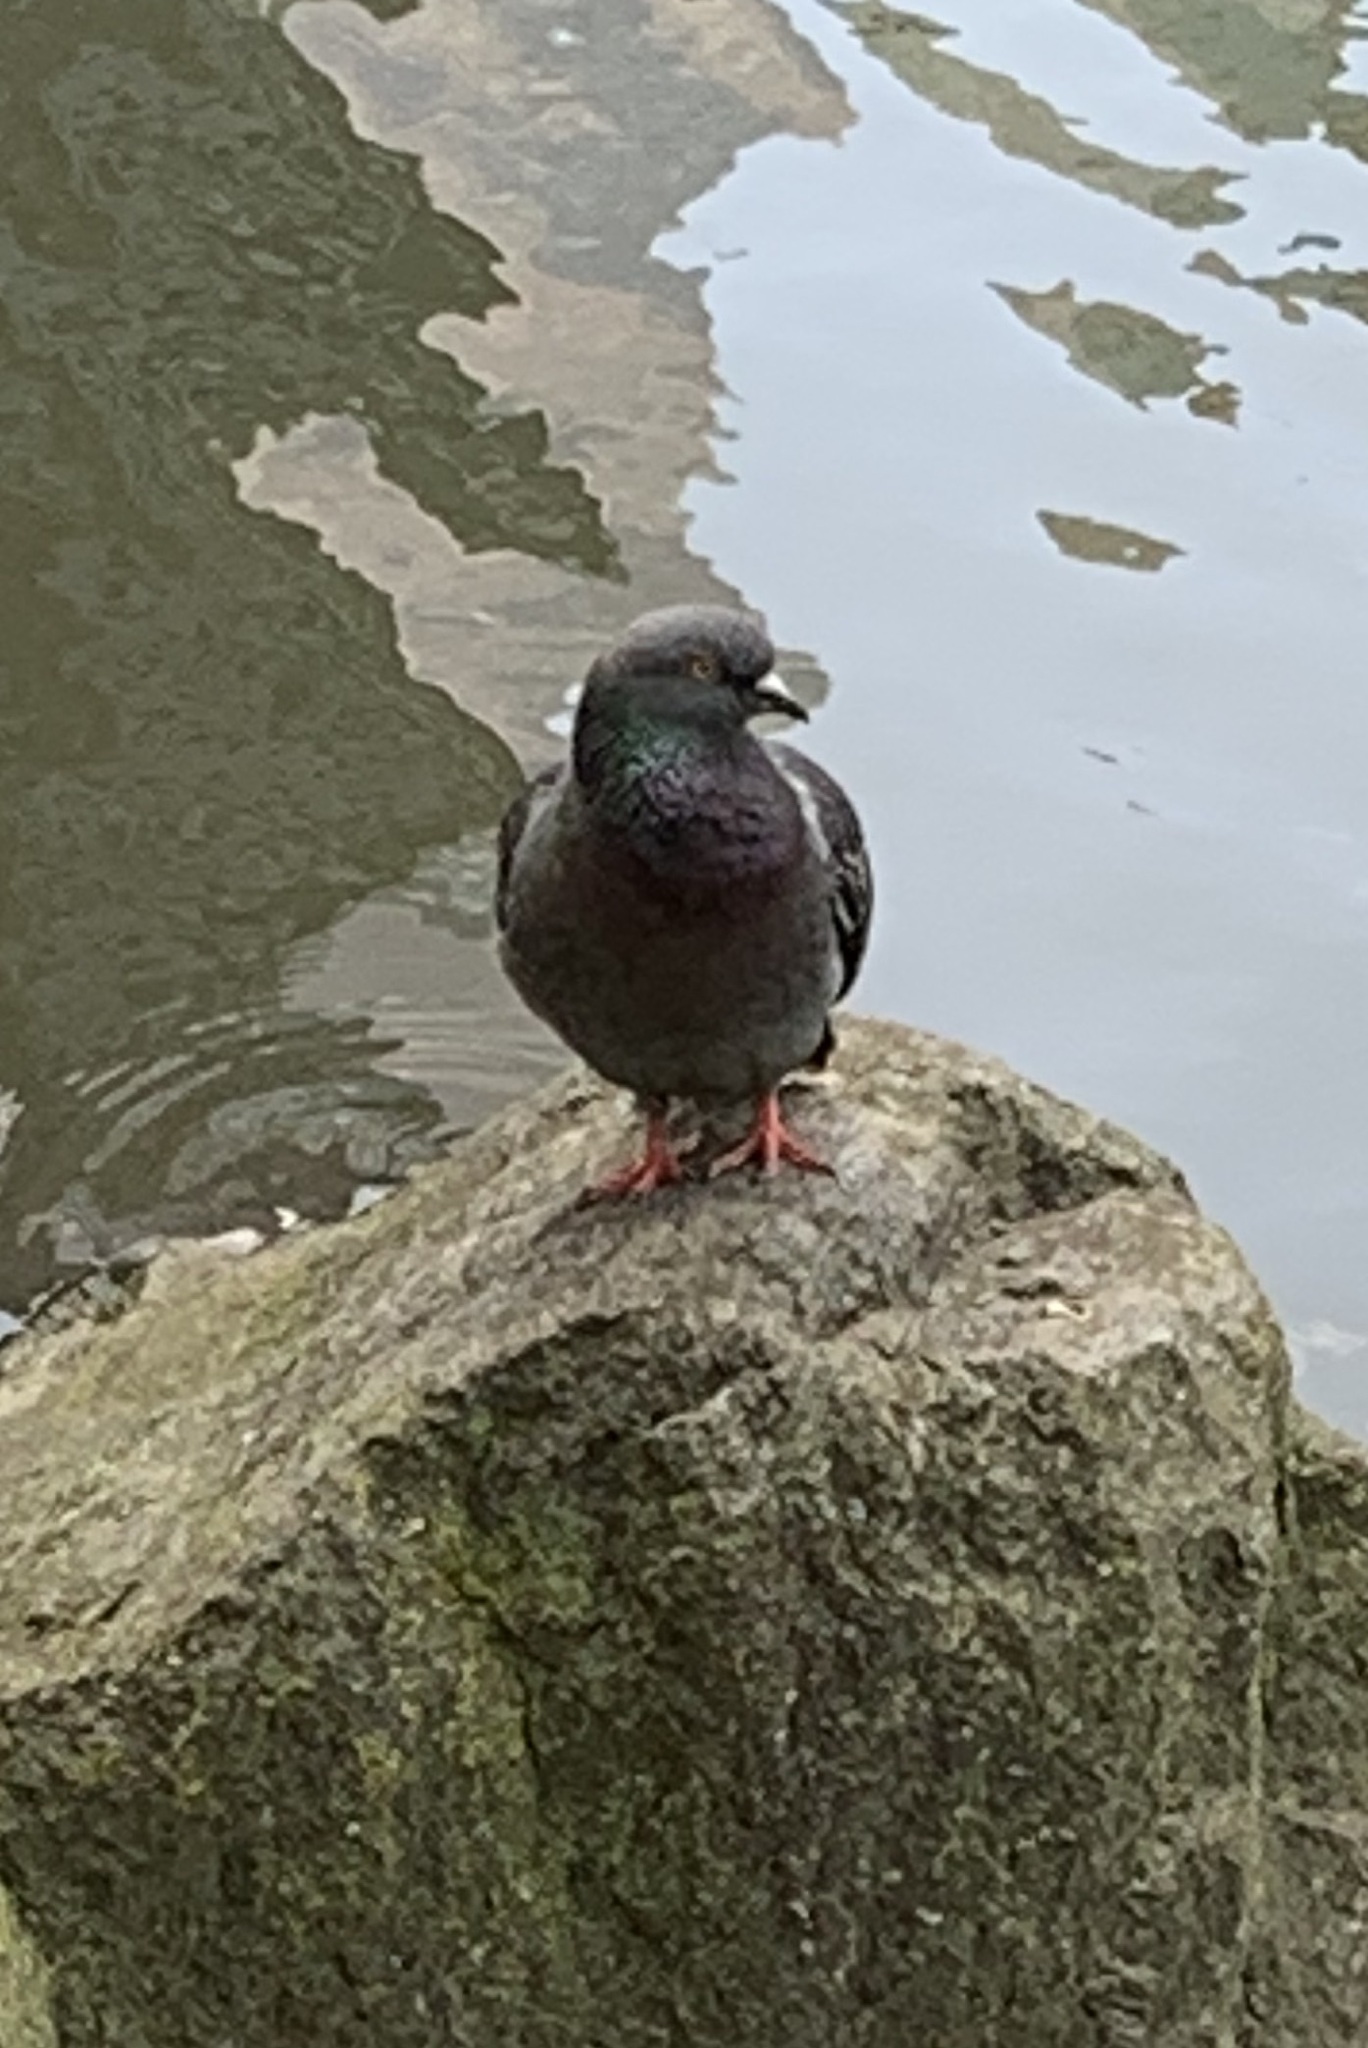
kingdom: Animalia
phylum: Chordata
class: Aves
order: Columbiformes
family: Columbidae
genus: Columba
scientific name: Columba livia
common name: Rock pigeon
